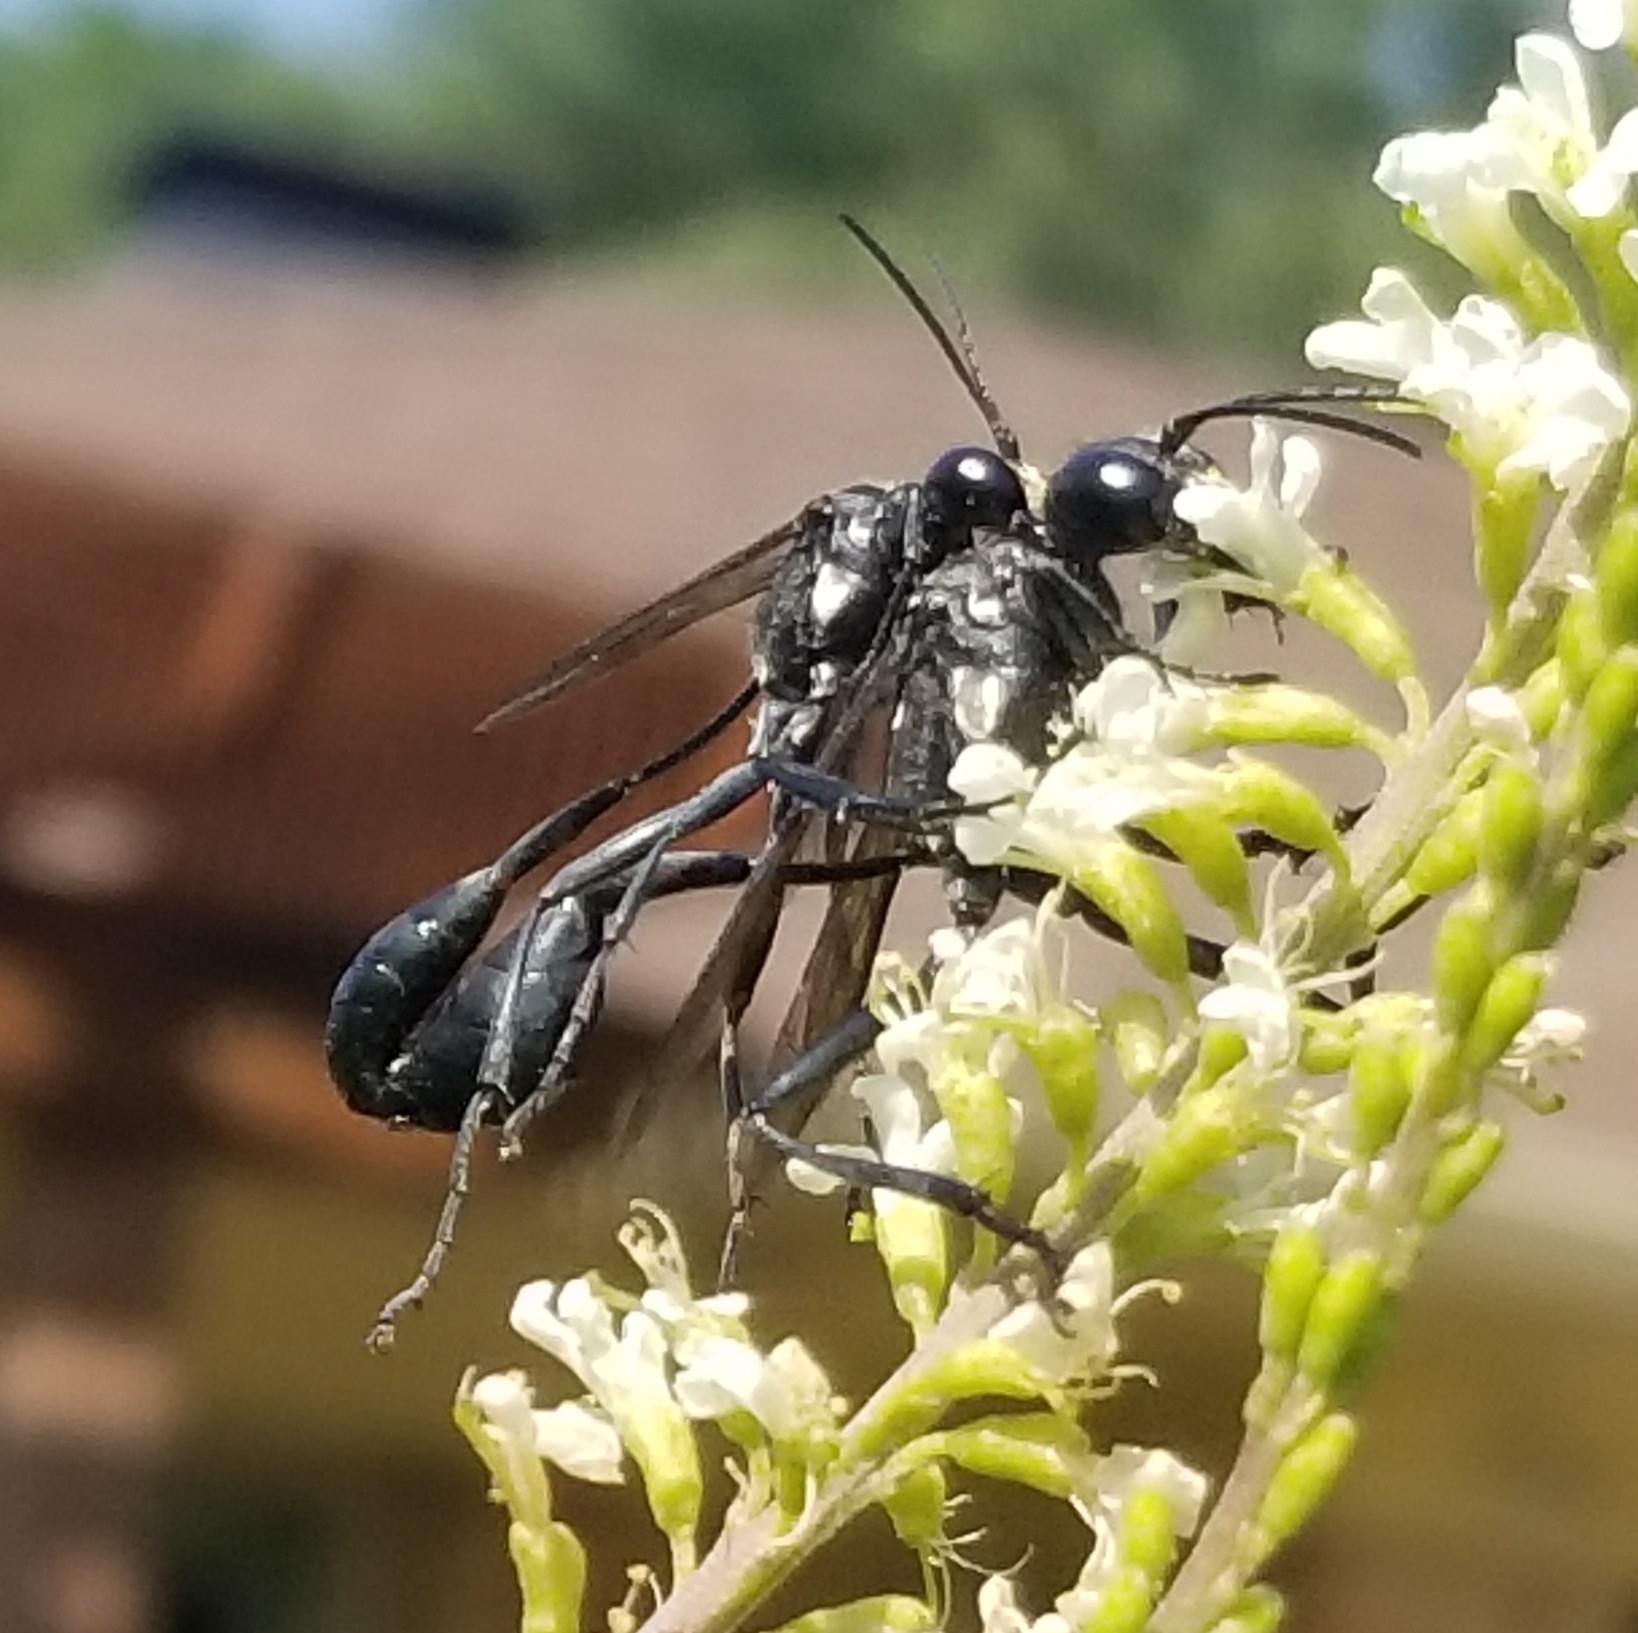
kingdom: Animalia
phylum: Arthropoda
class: Insecta
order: Hymenoptera
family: Sphecidae
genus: Eremnophila
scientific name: Eremnophila aureonotata
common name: Gold-marked thread-waisted wasp
